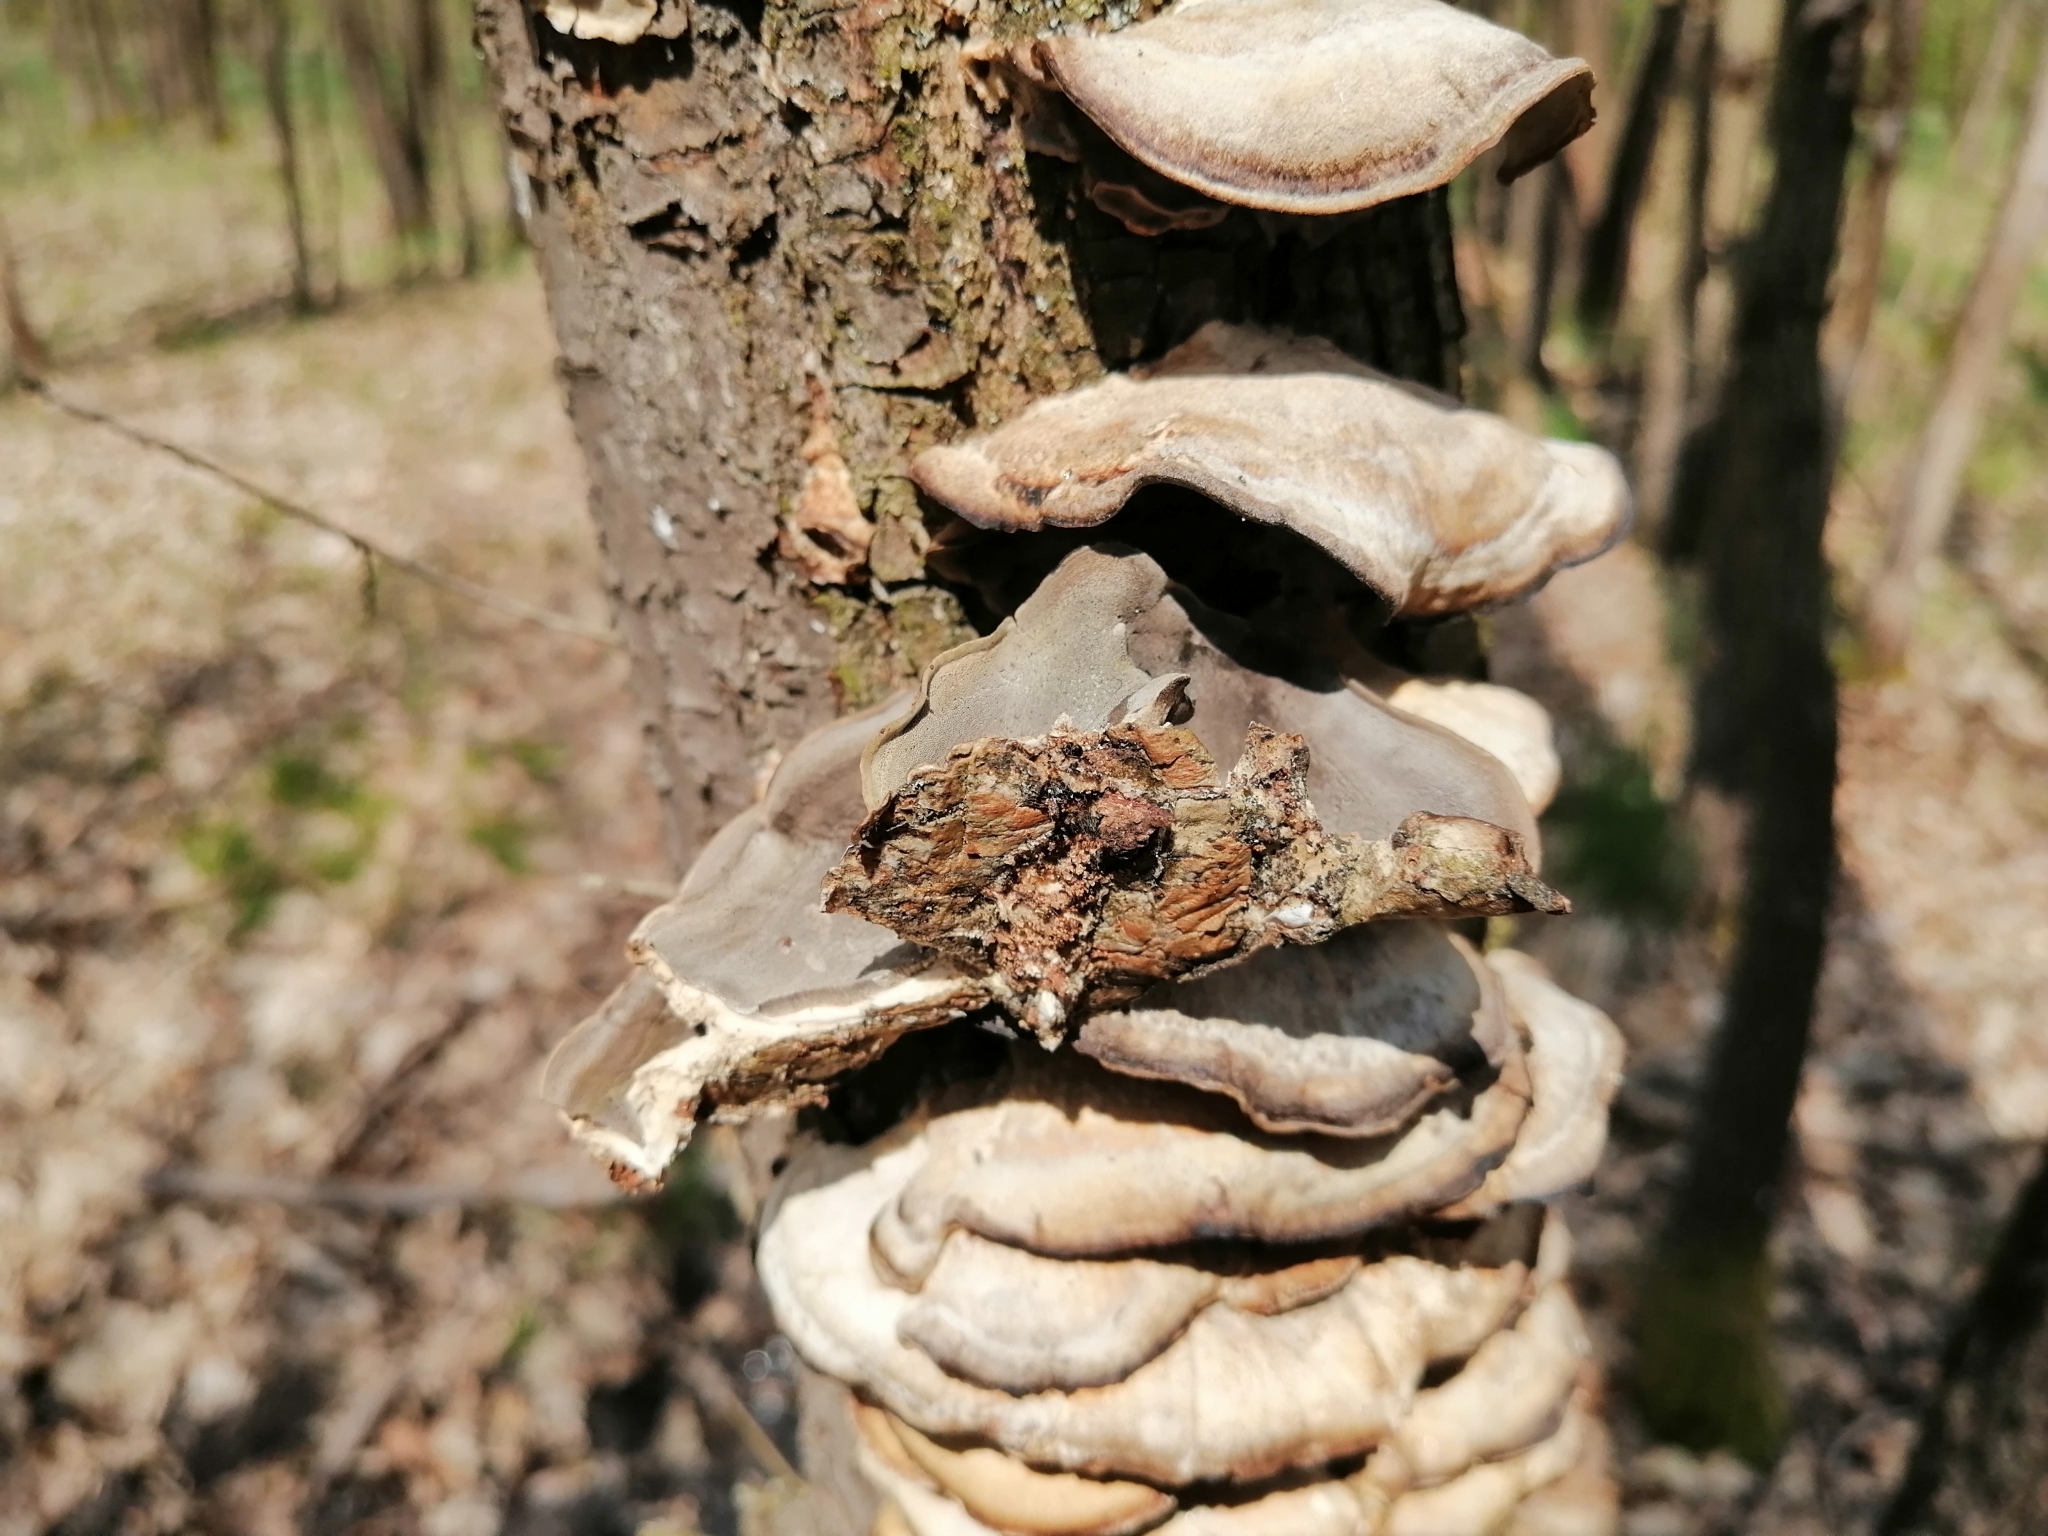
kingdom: Fungi
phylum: Basidiomycota
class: Agaricomycetes
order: Polyporales
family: Phanerochaetaceae
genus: Bjerkandera
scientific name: Bjerkandera adusta
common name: Smoky bracket
